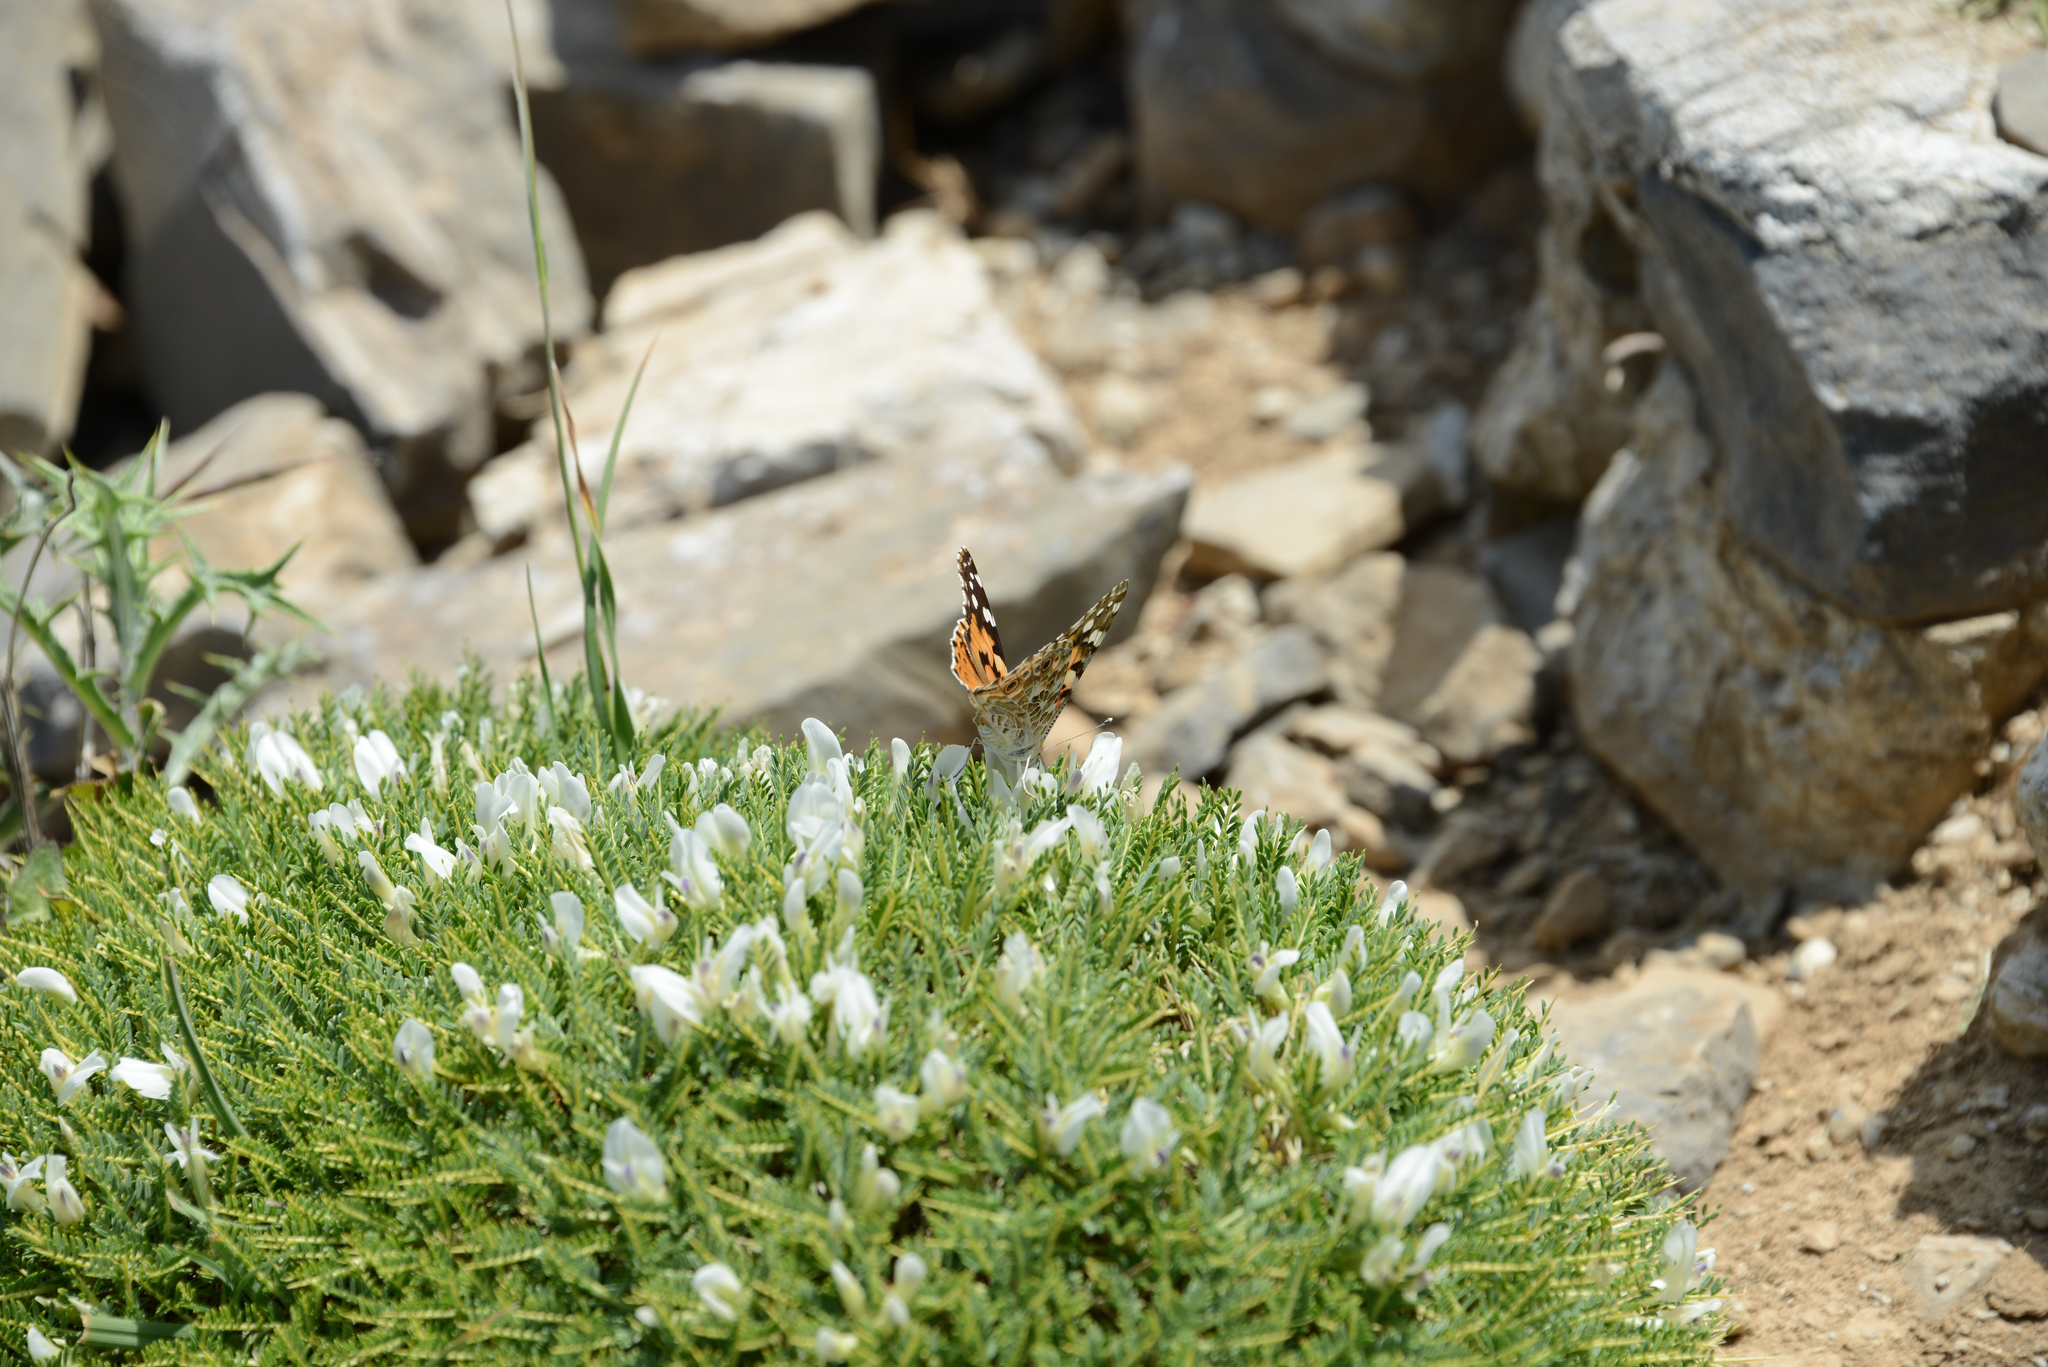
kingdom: Animalia
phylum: Arthropoda
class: Insecta
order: Lepidoptera
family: Nymphalidae
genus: Vanessa
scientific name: Vanessa cardui
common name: Painted lady
